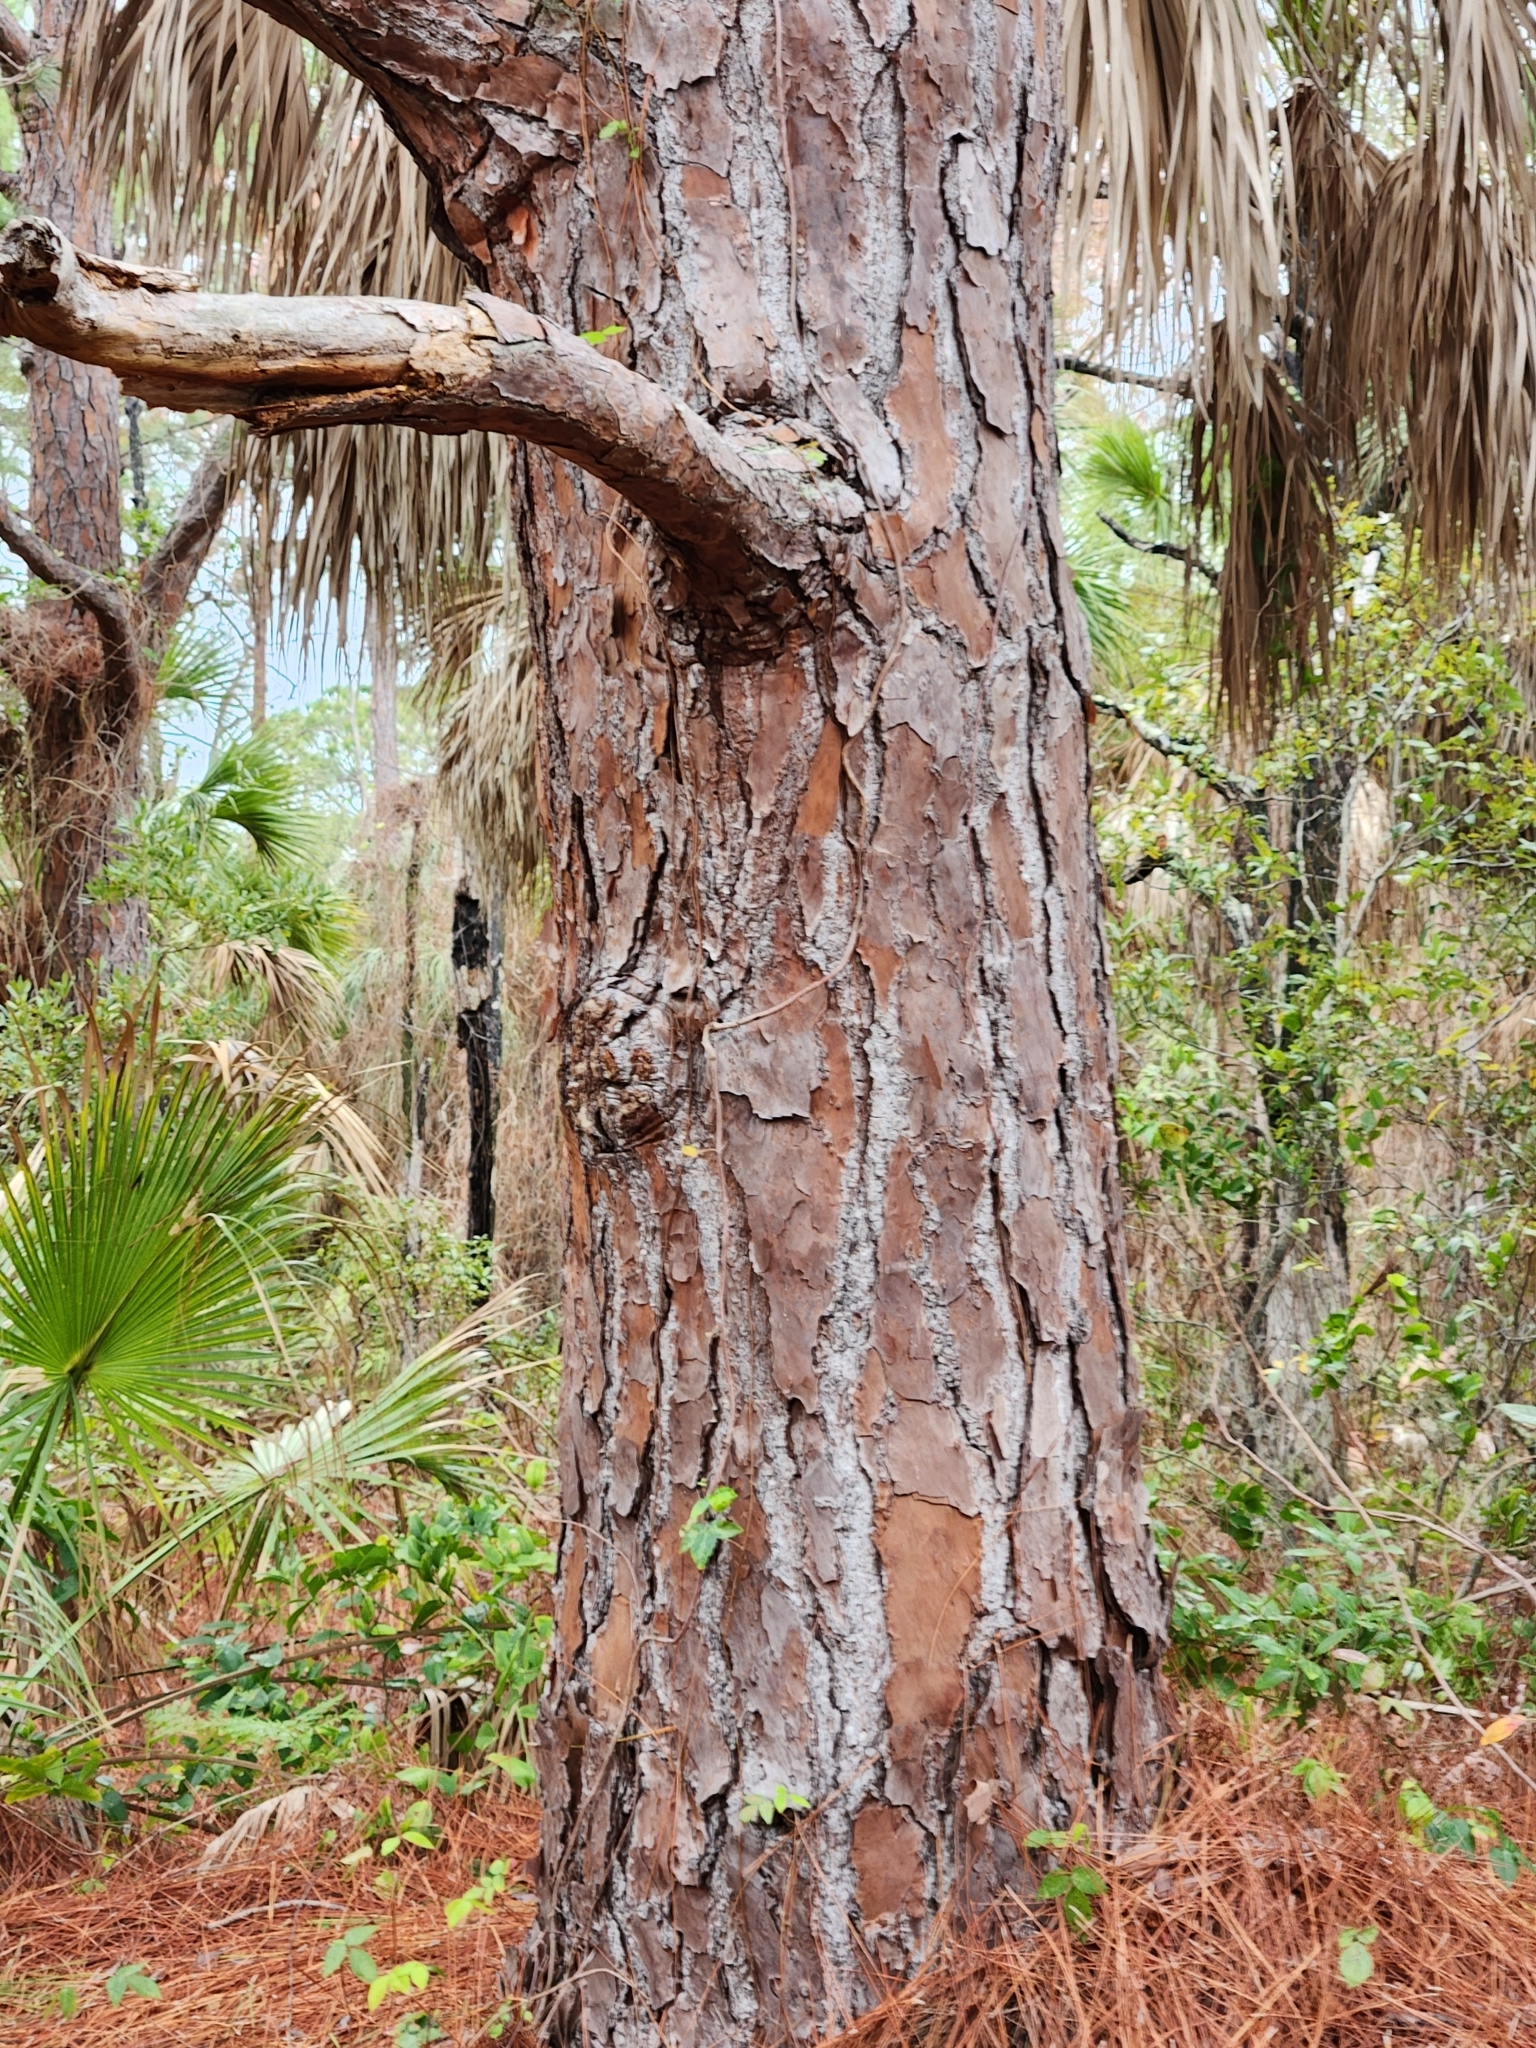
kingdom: Plantae
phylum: Tracheophyta
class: Pinopsida
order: Pinales
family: Pinaceae
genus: Pinus
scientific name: Pinus elliottii
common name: Slash pine
